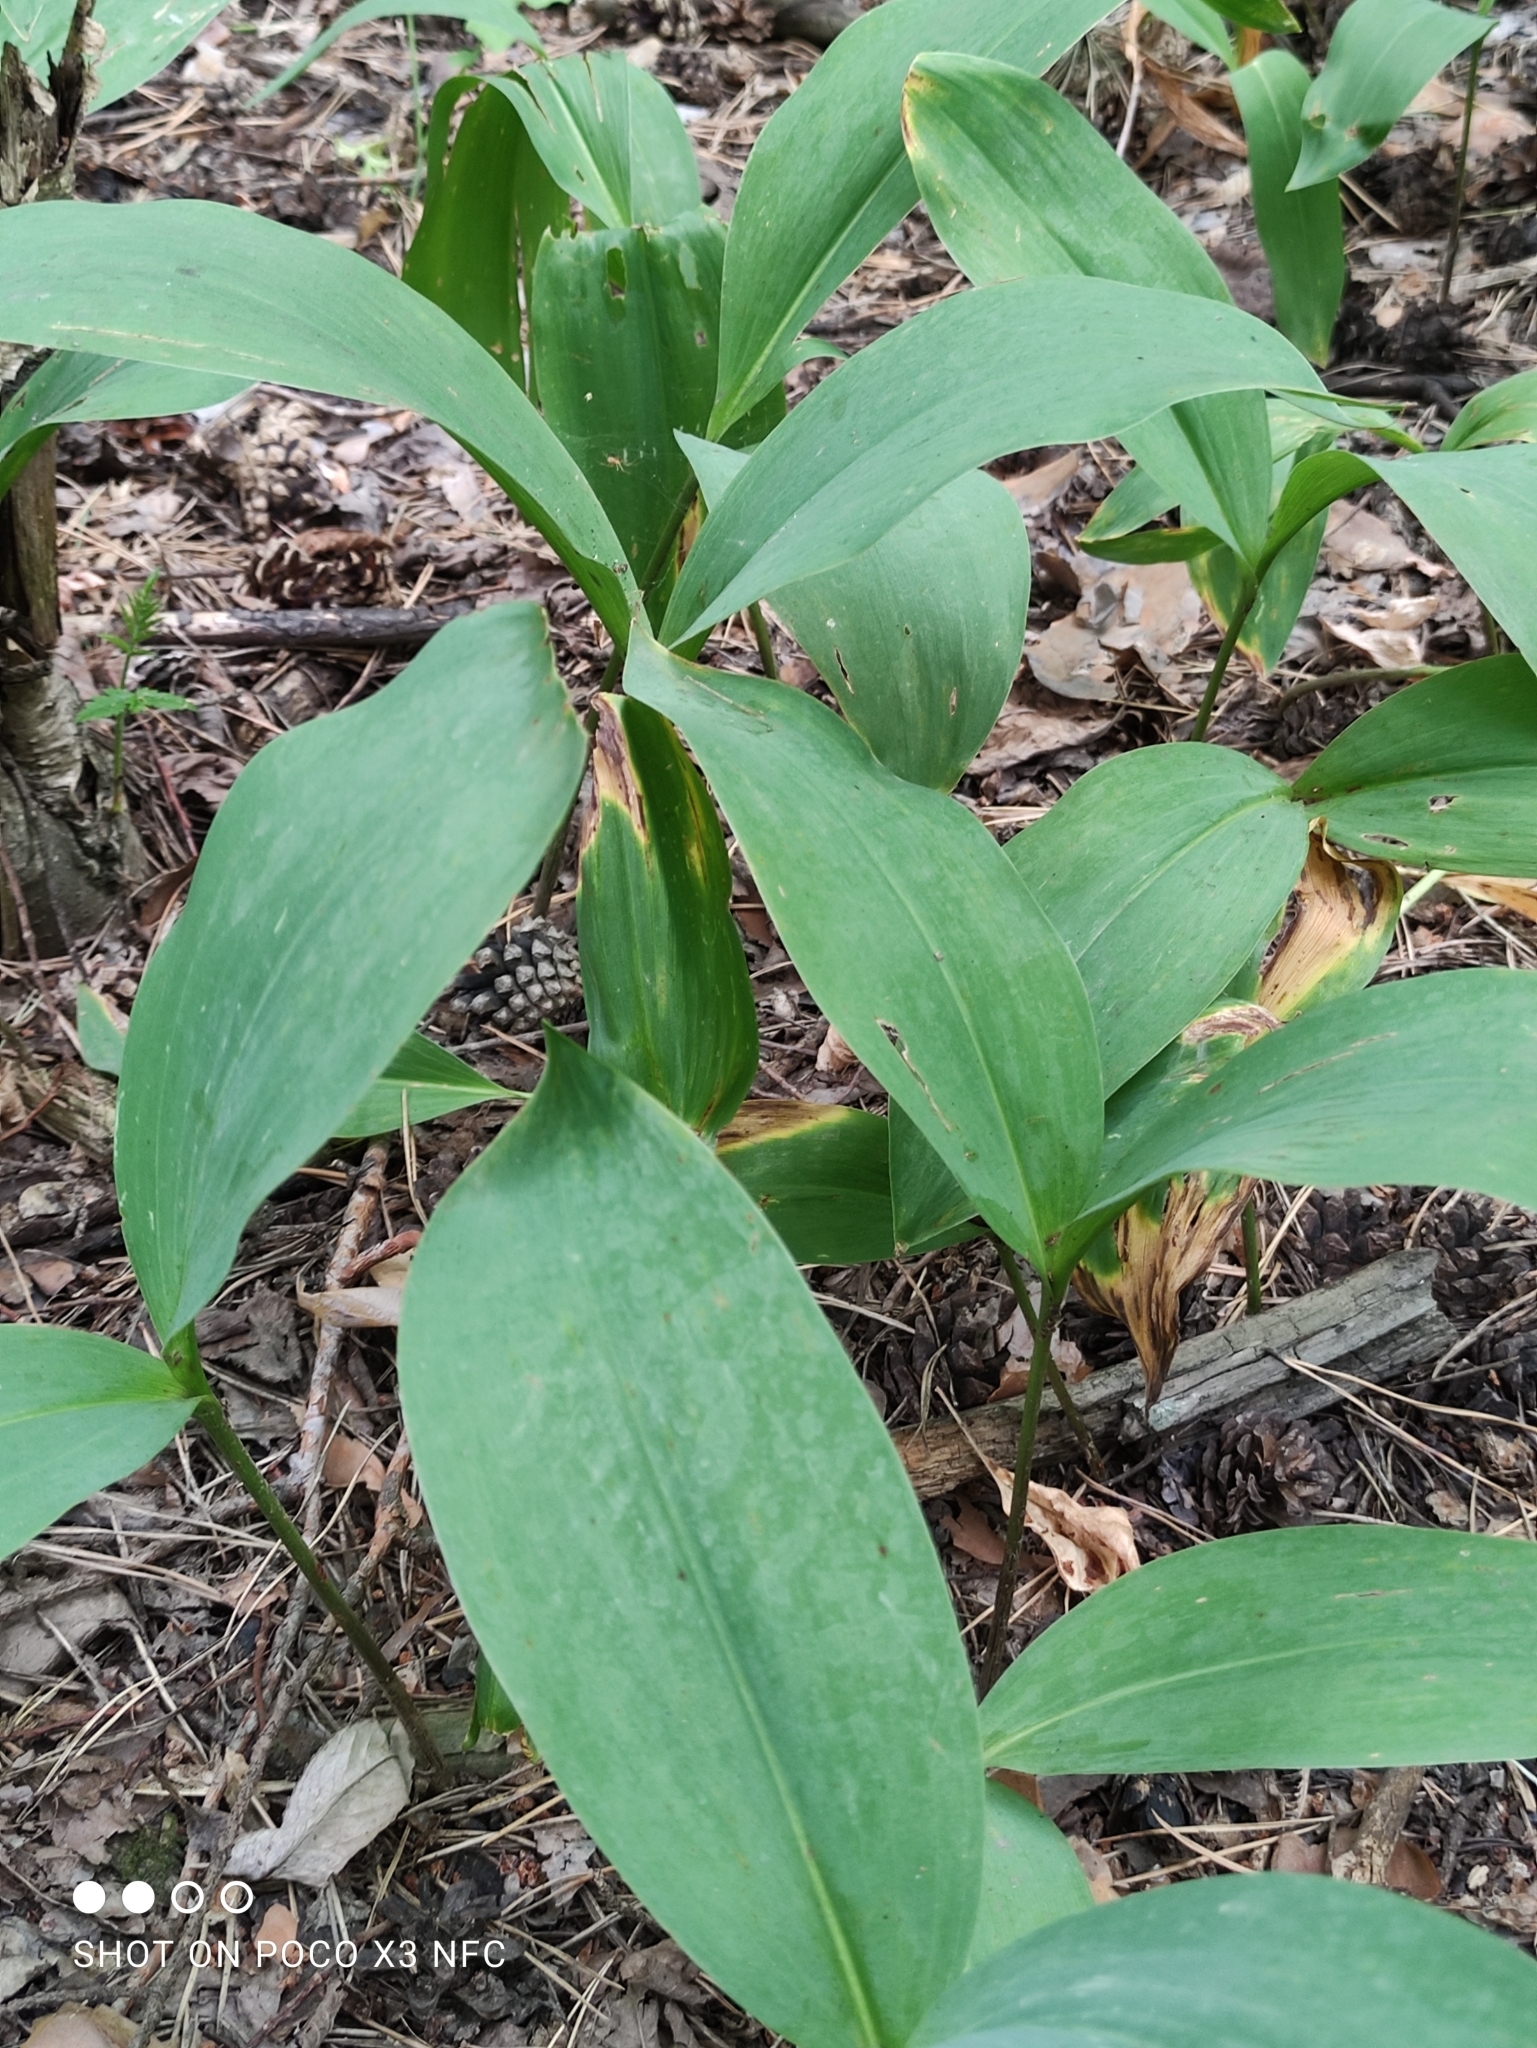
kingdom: Plantae
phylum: Tracheophyta
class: Liliopsida
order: Asparagales
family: Asparagaceae
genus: Convallaria
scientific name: Convallaria majalis
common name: Lily-of-the-valley
